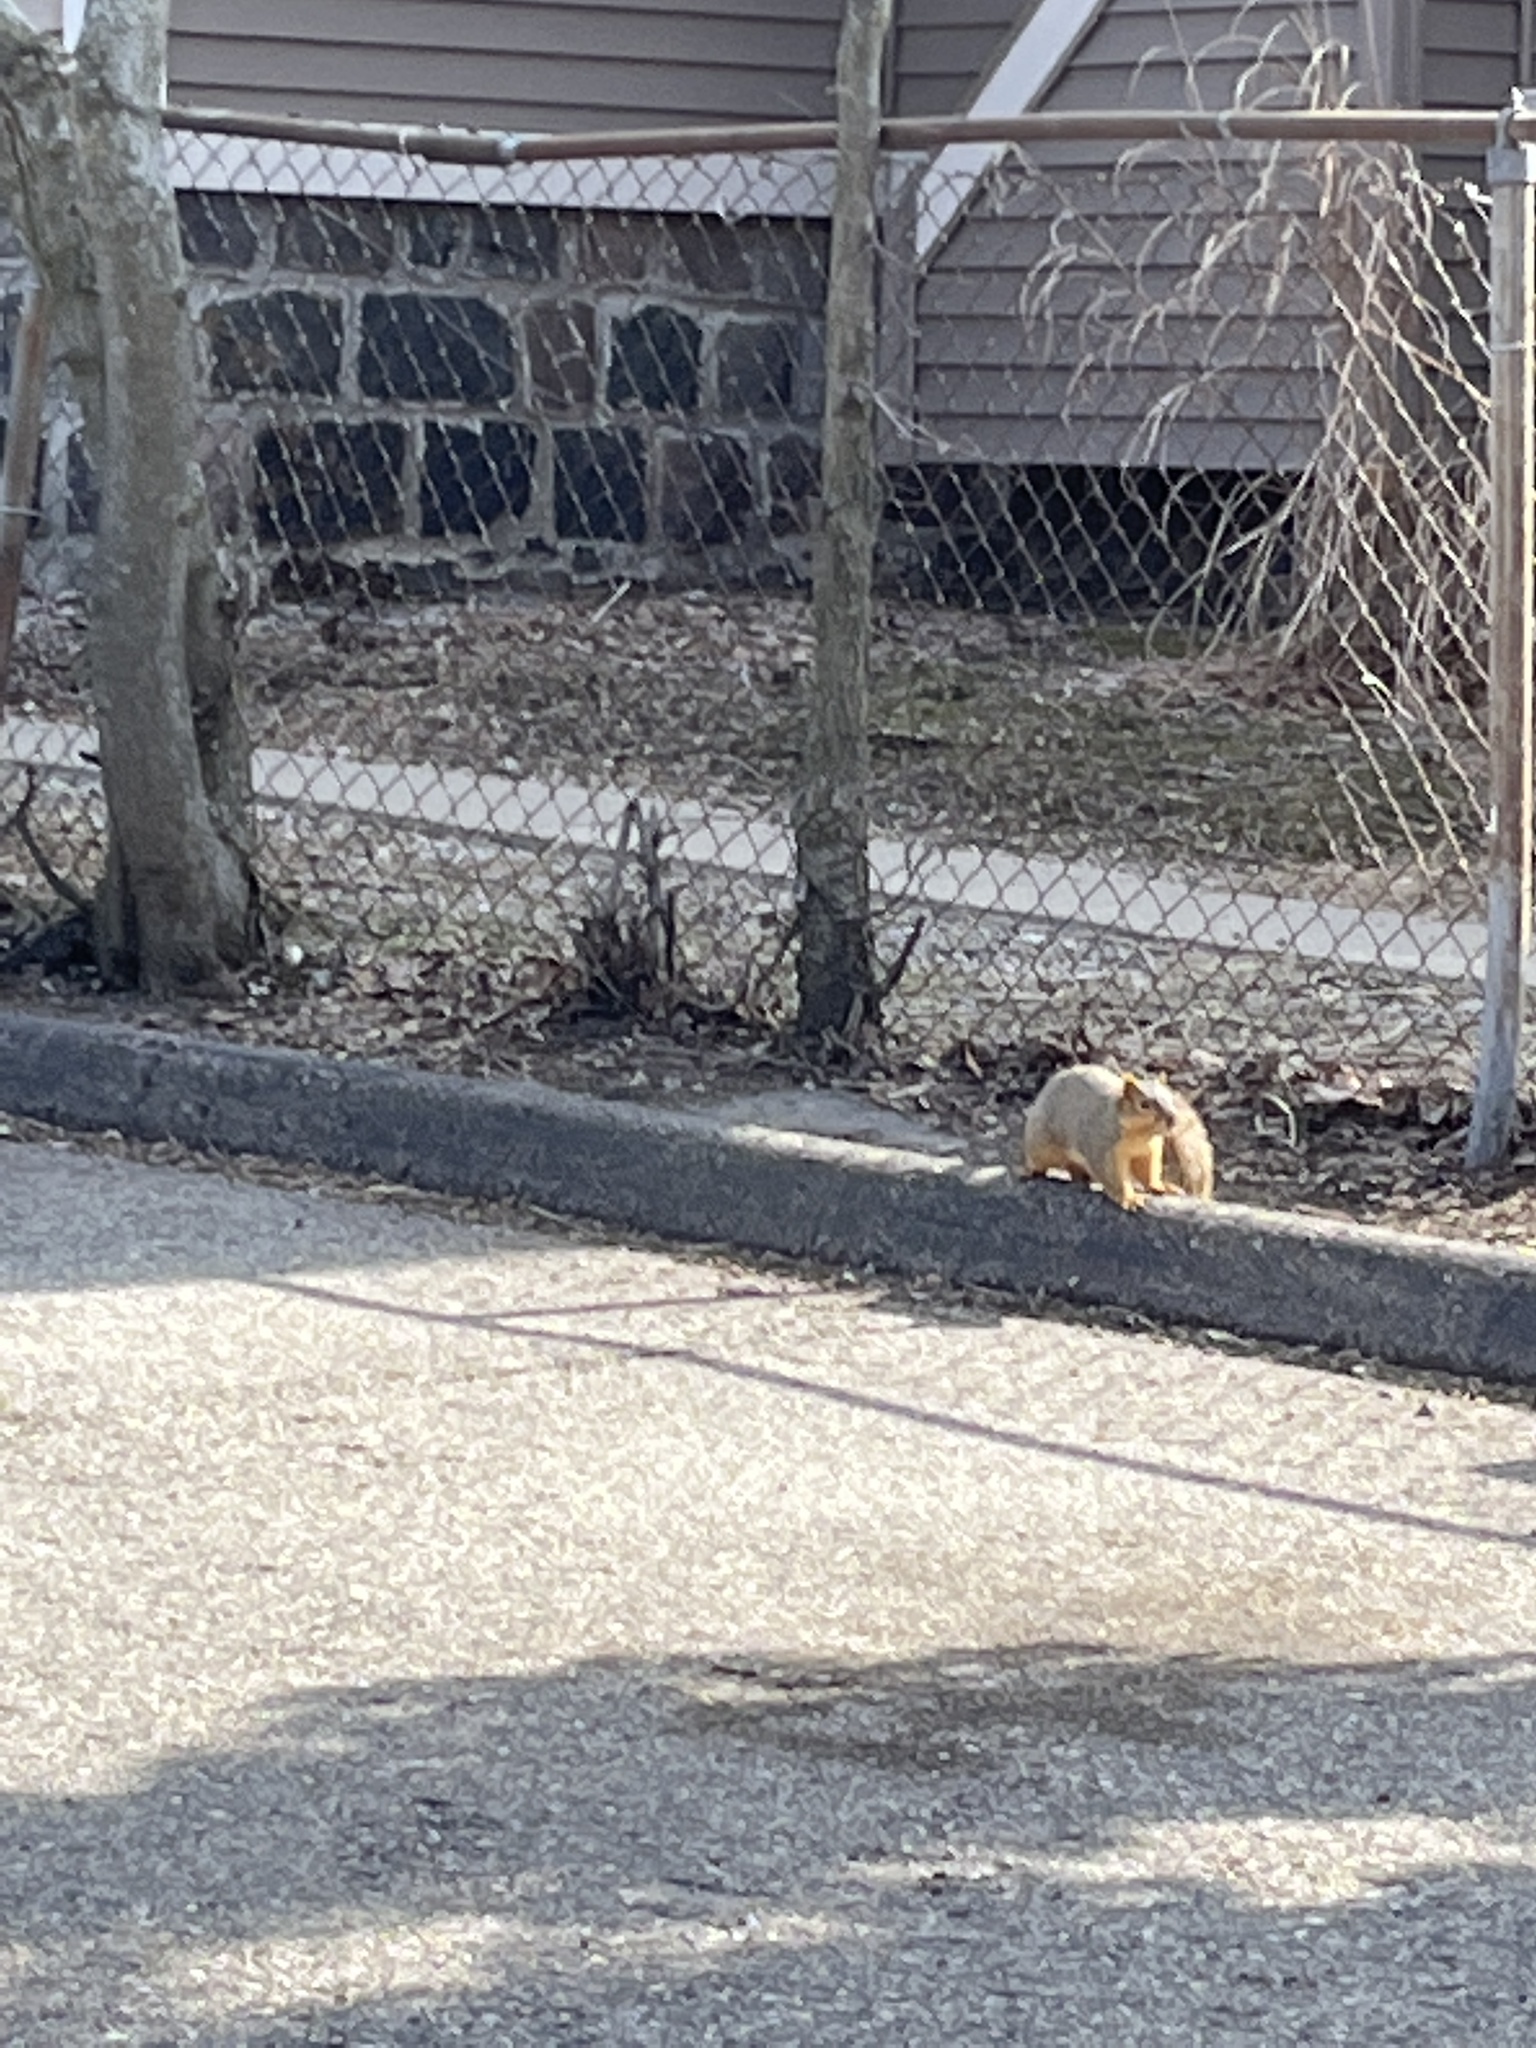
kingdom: Animalia
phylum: Chordata
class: Mammalia
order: Rodentia
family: Sciuridae
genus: Sciurus
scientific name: Sciurus niger
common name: Fox squirrel
